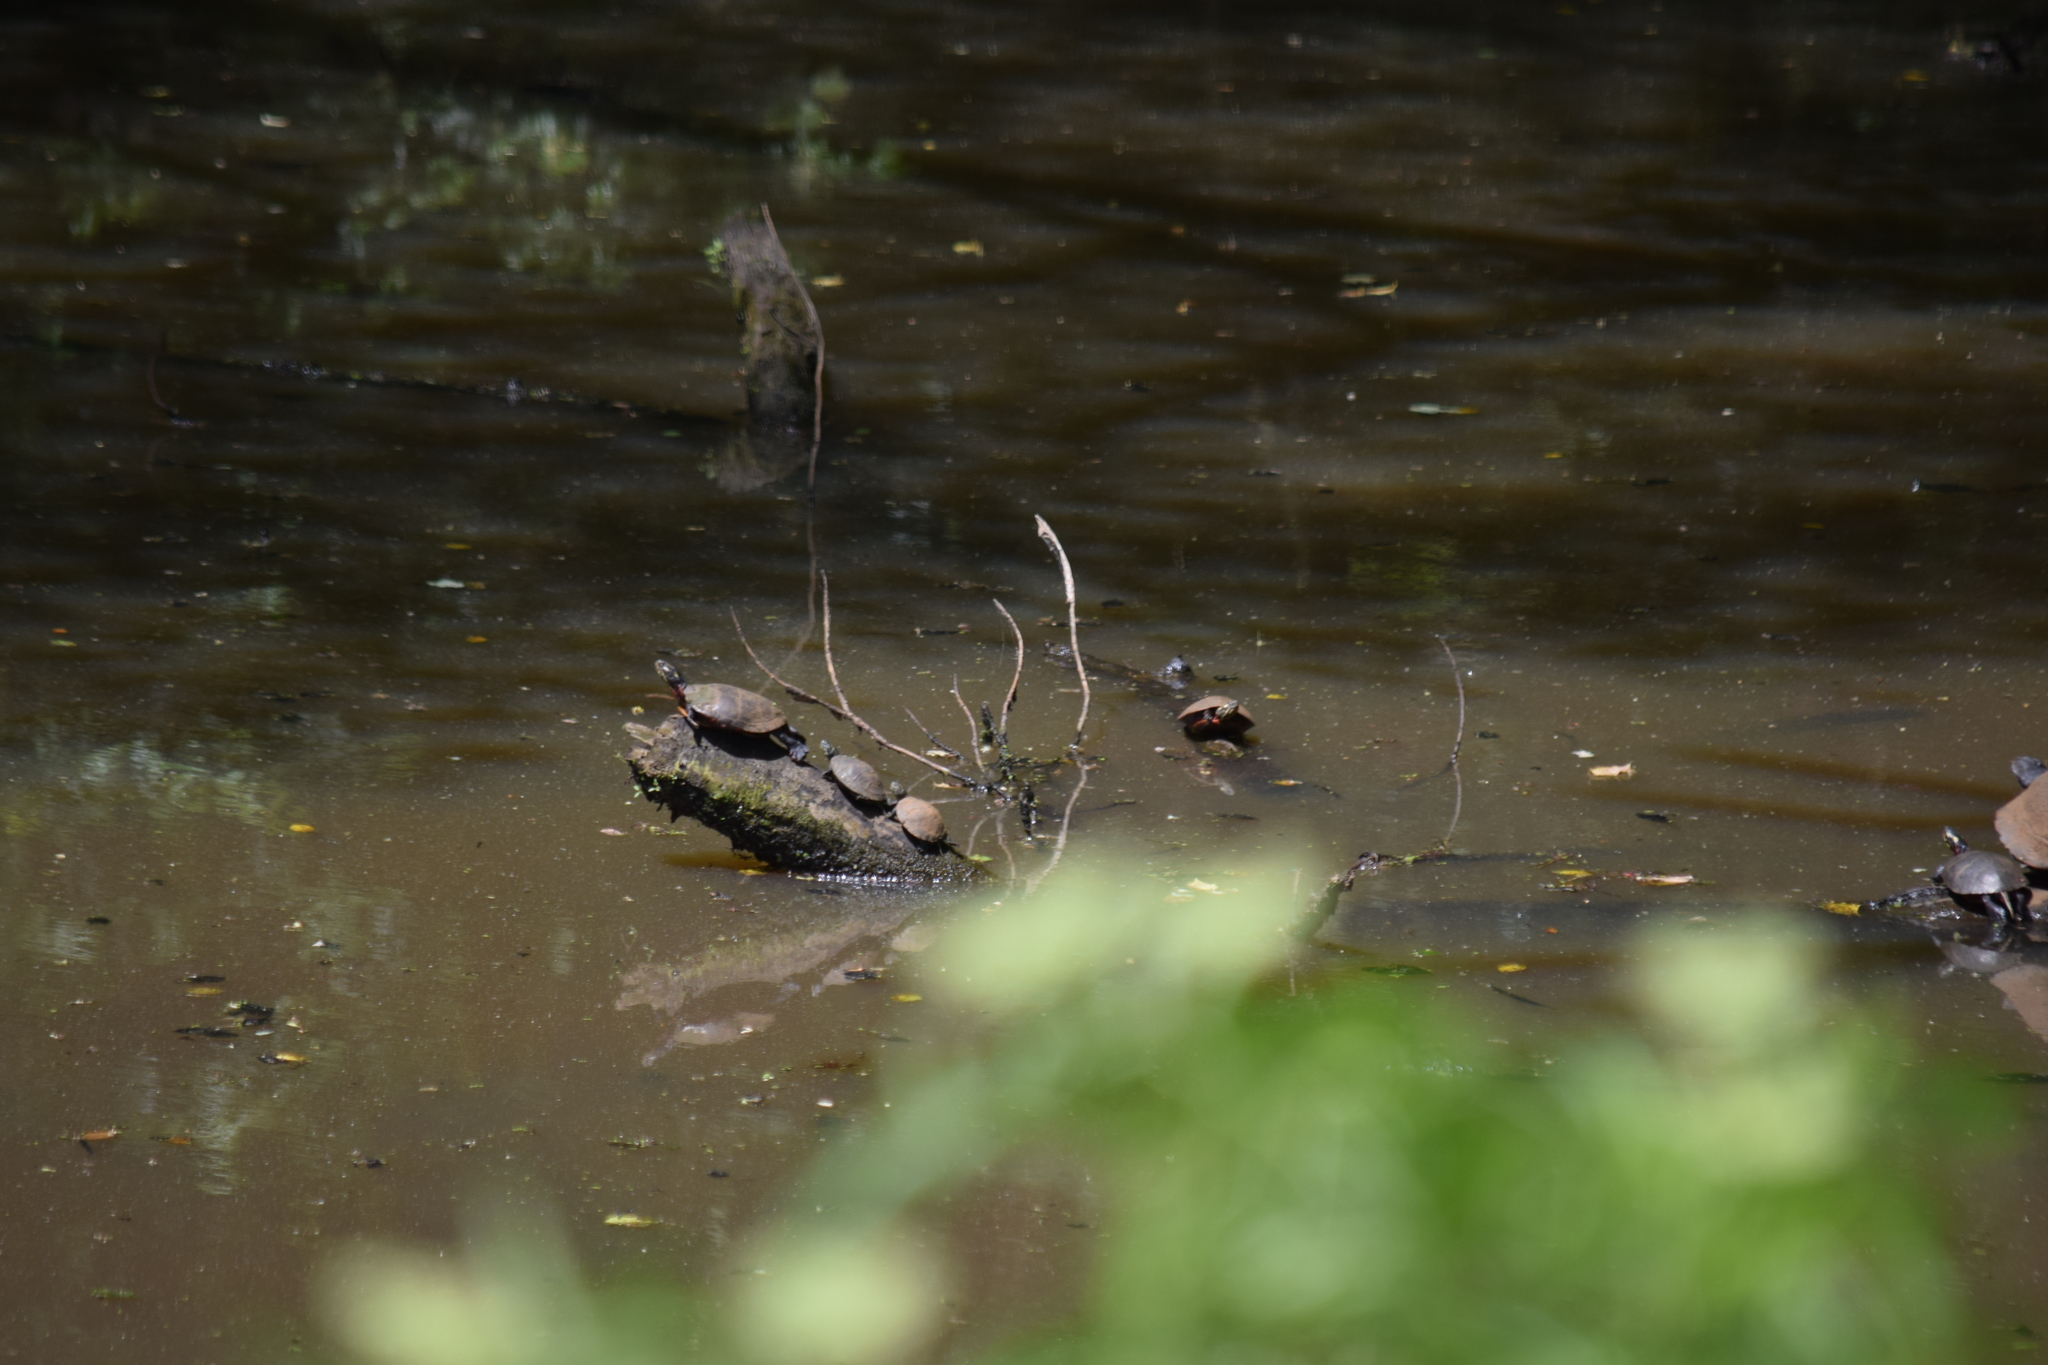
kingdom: Animalia
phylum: Chordata
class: Testudines
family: Emydidae
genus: Chrysemys
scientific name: Chrysemys picta
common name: Painted turtle
